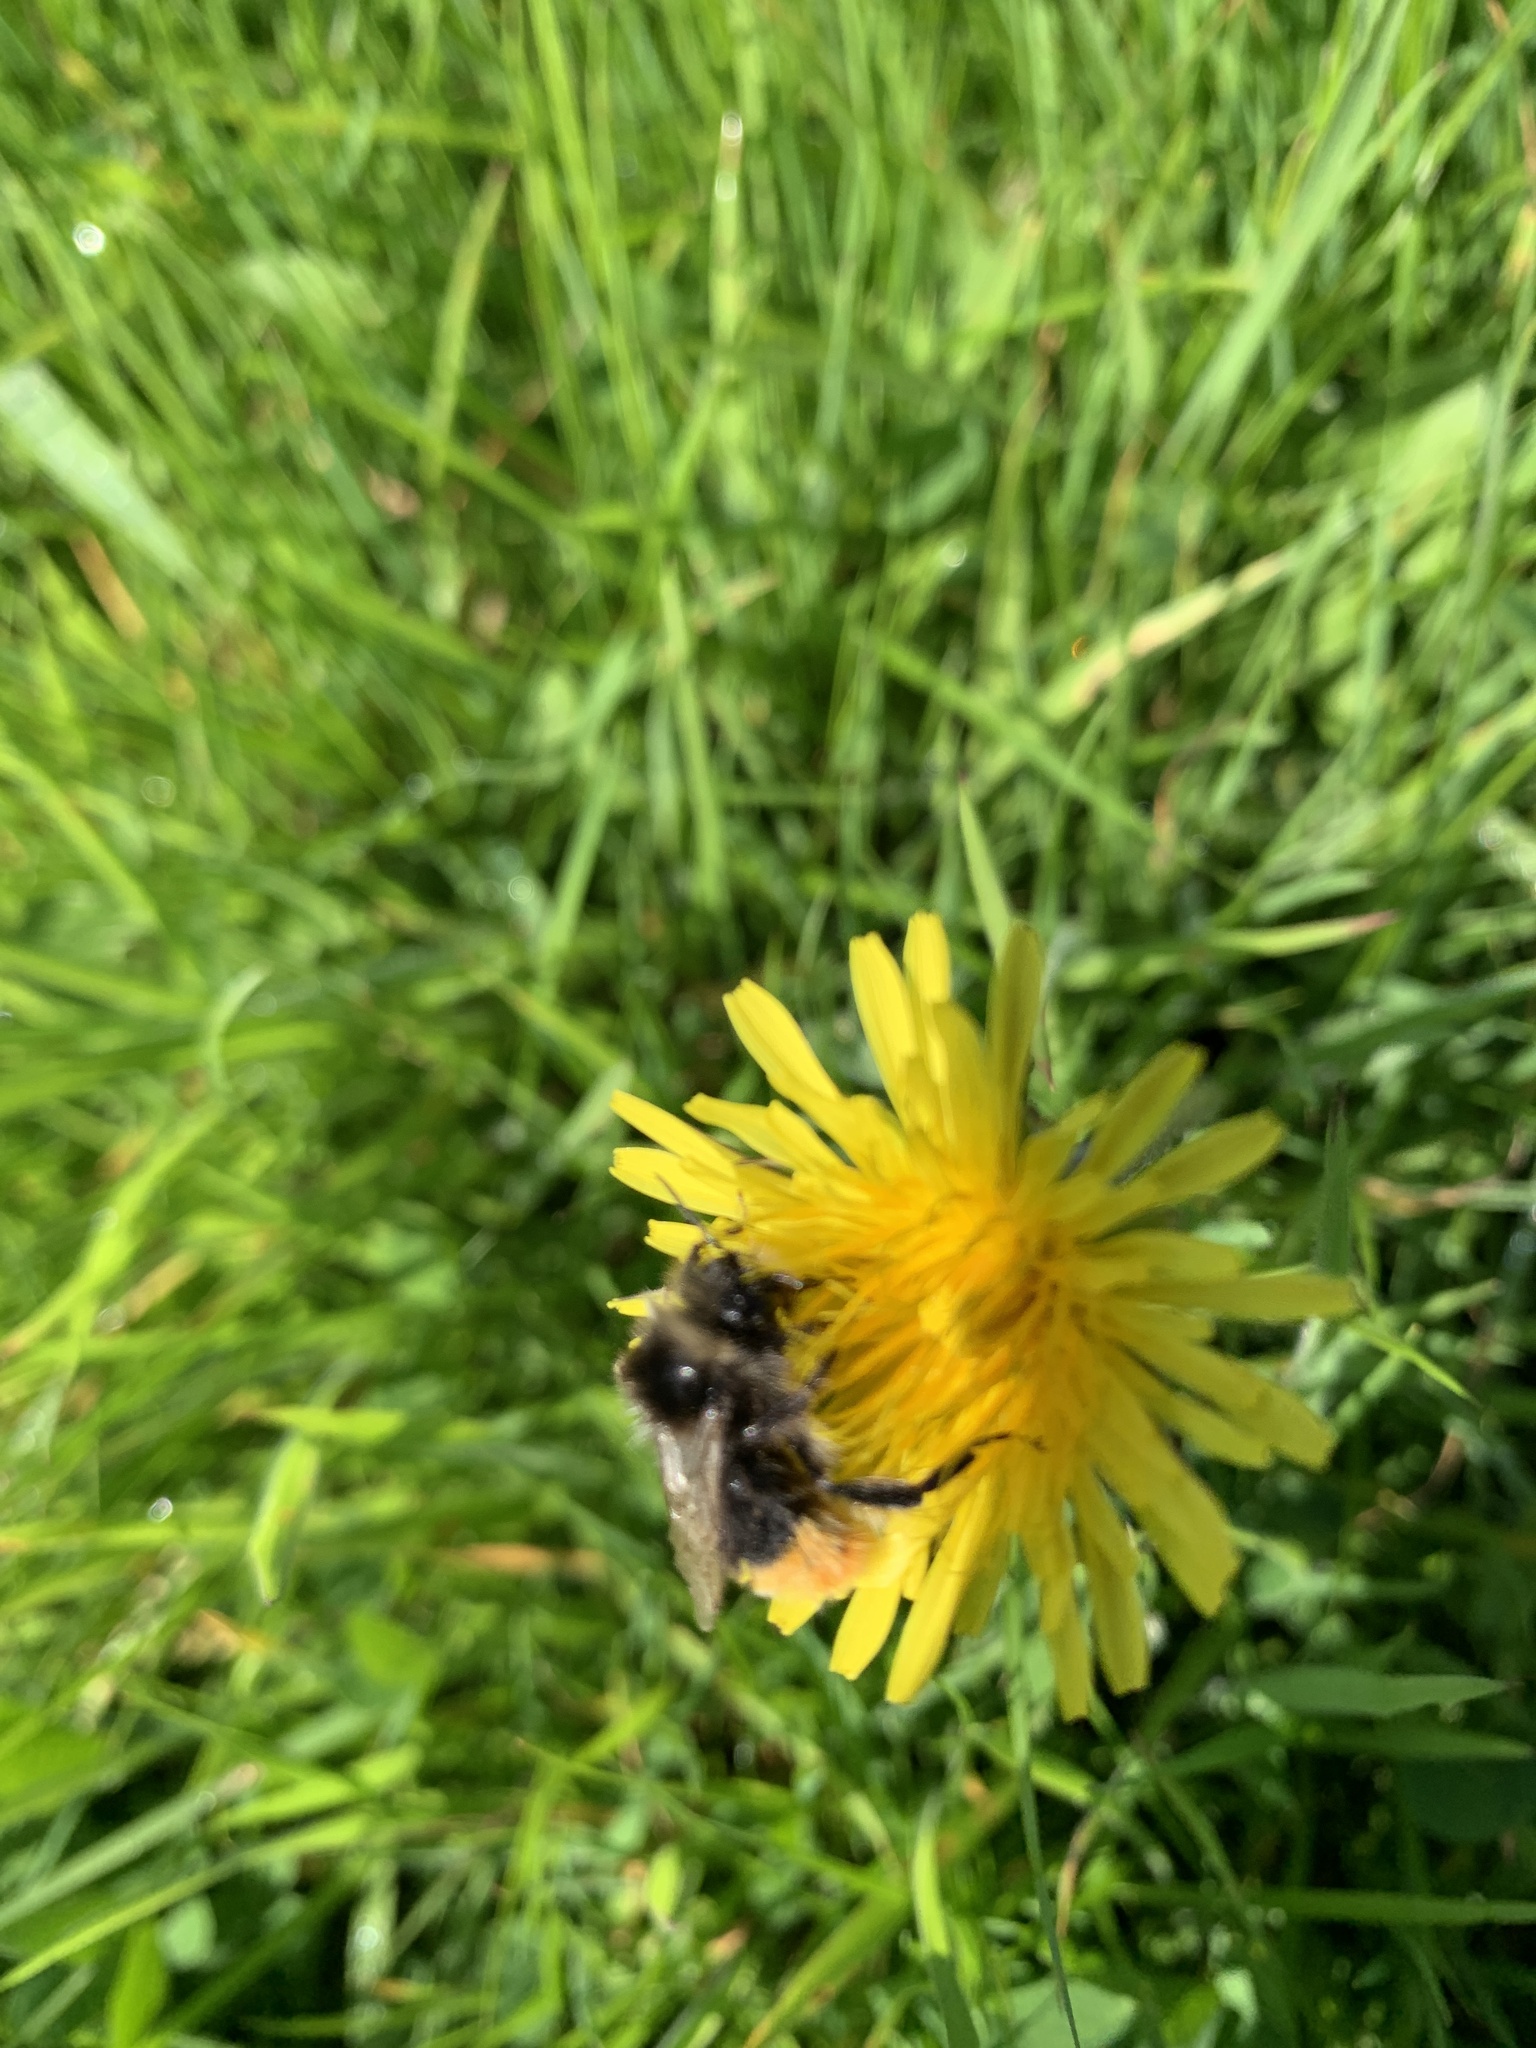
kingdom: Animalia
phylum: Arthropoda
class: Insecta
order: Hymenoptera
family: Apidae
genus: Bombus
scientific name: Bombus lapidarius
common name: Large red-tailed humble-bee
